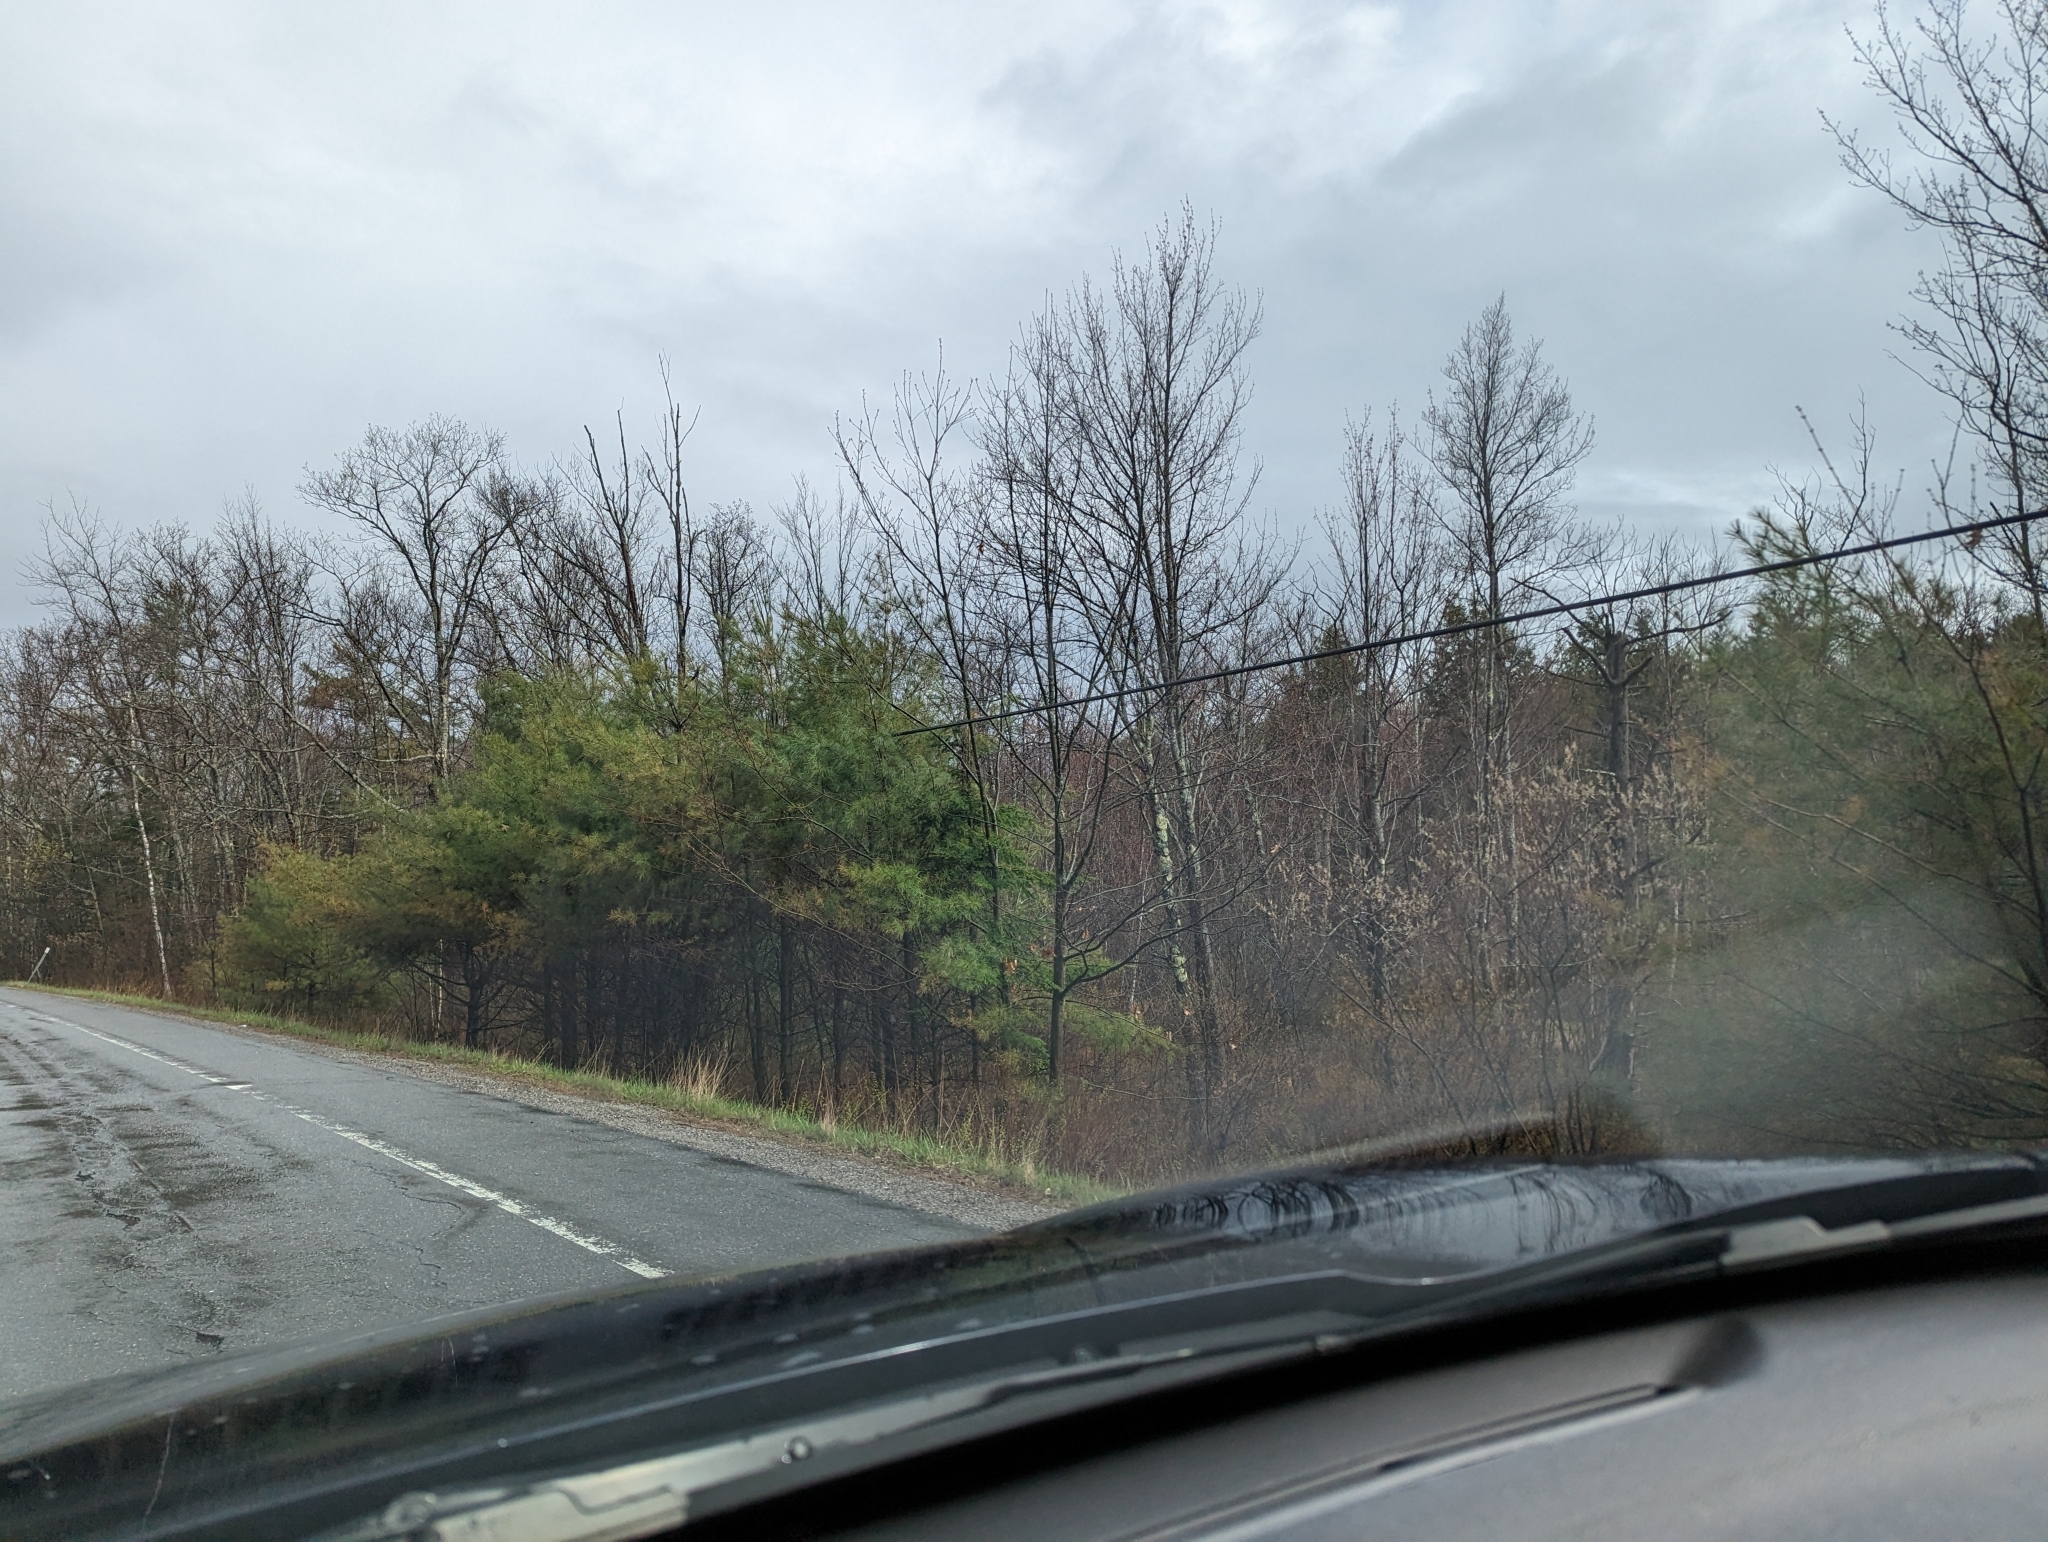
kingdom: Plantae
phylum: Tracheophyta
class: Pinopsida
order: Pinales
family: Pinaceae
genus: Pinus
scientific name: Pinus strobus
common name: Weymouth pine
